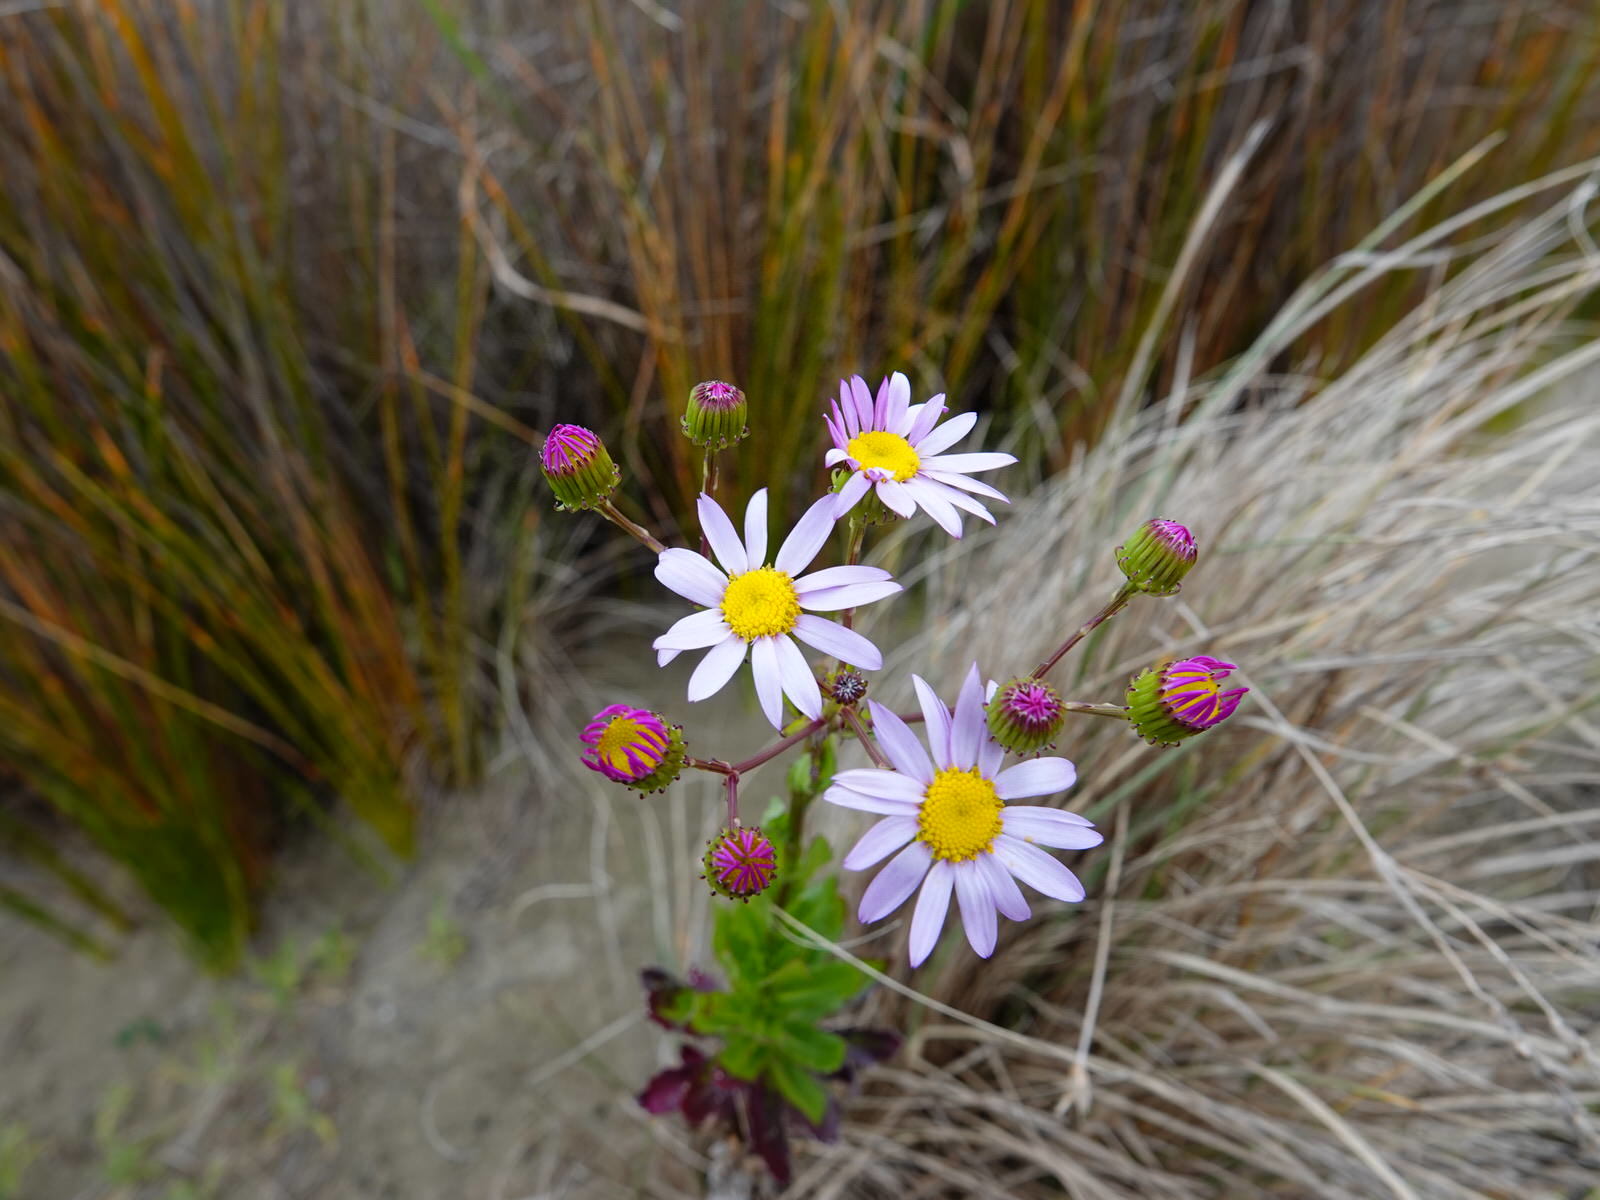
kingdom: Plantae
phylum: Tracheophyta
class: Magnoliopsida
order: Asterales
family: Asteraceae
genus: Senecio
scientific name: Senecio glastifolius
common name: Woad-leaved ragwort
